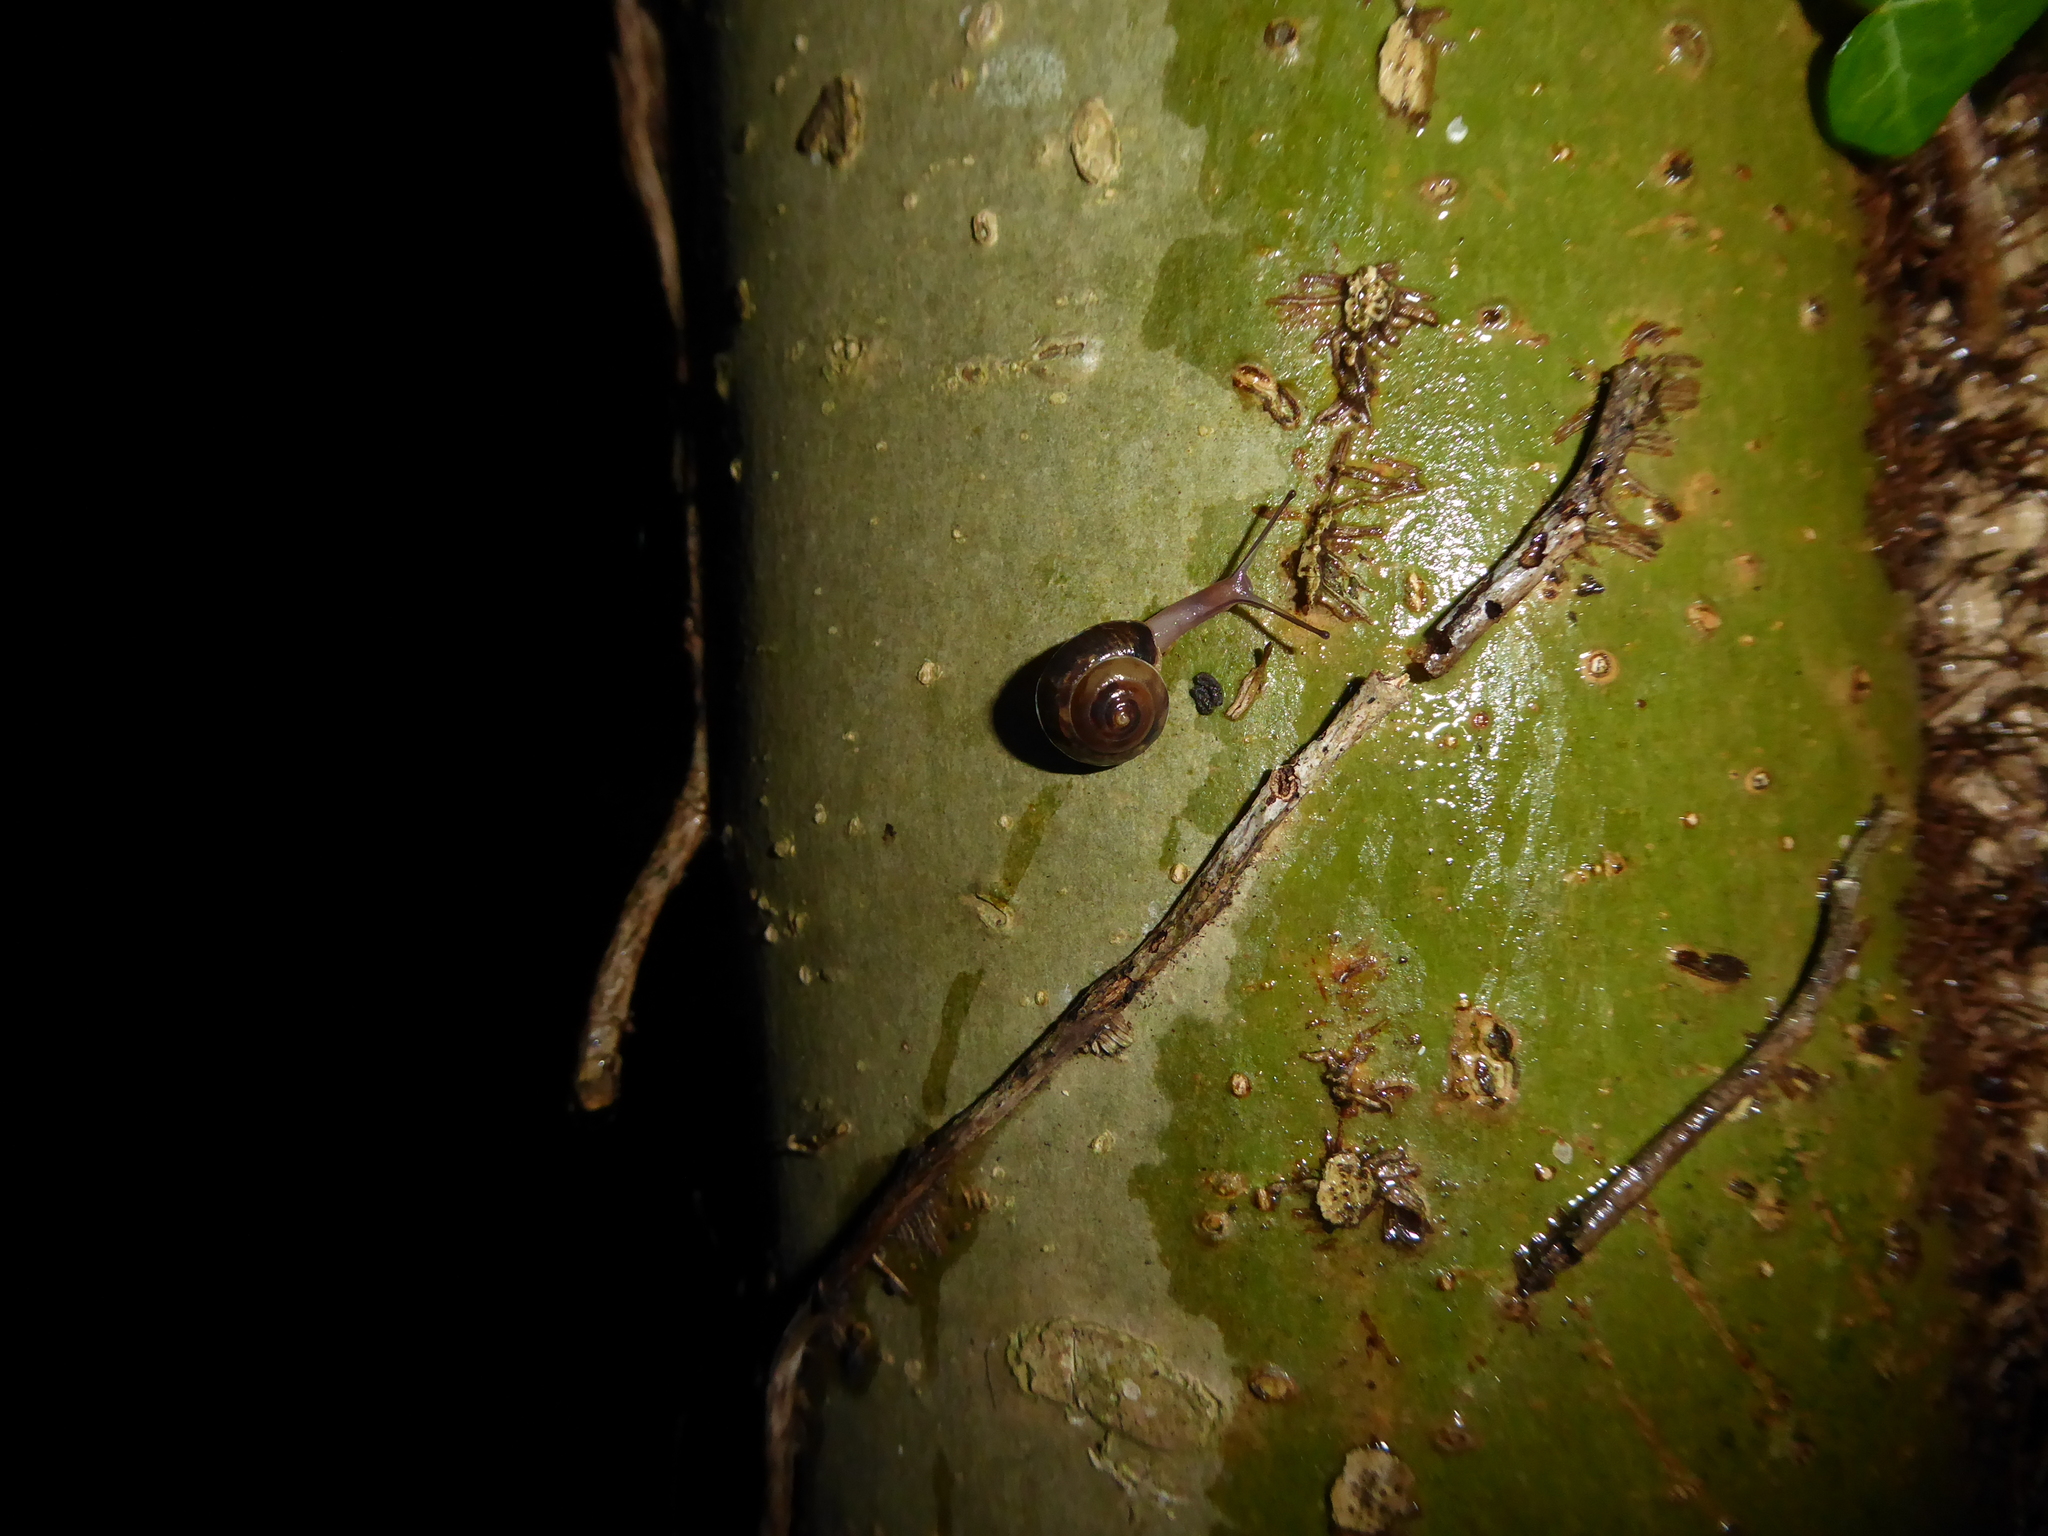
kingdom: Animalia
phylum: Mollusca
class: Gastropoda
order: Stylommatophora
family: Hygromiidae
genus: Hygromia
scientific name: Hygromia cinctella
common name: Girdled snail
